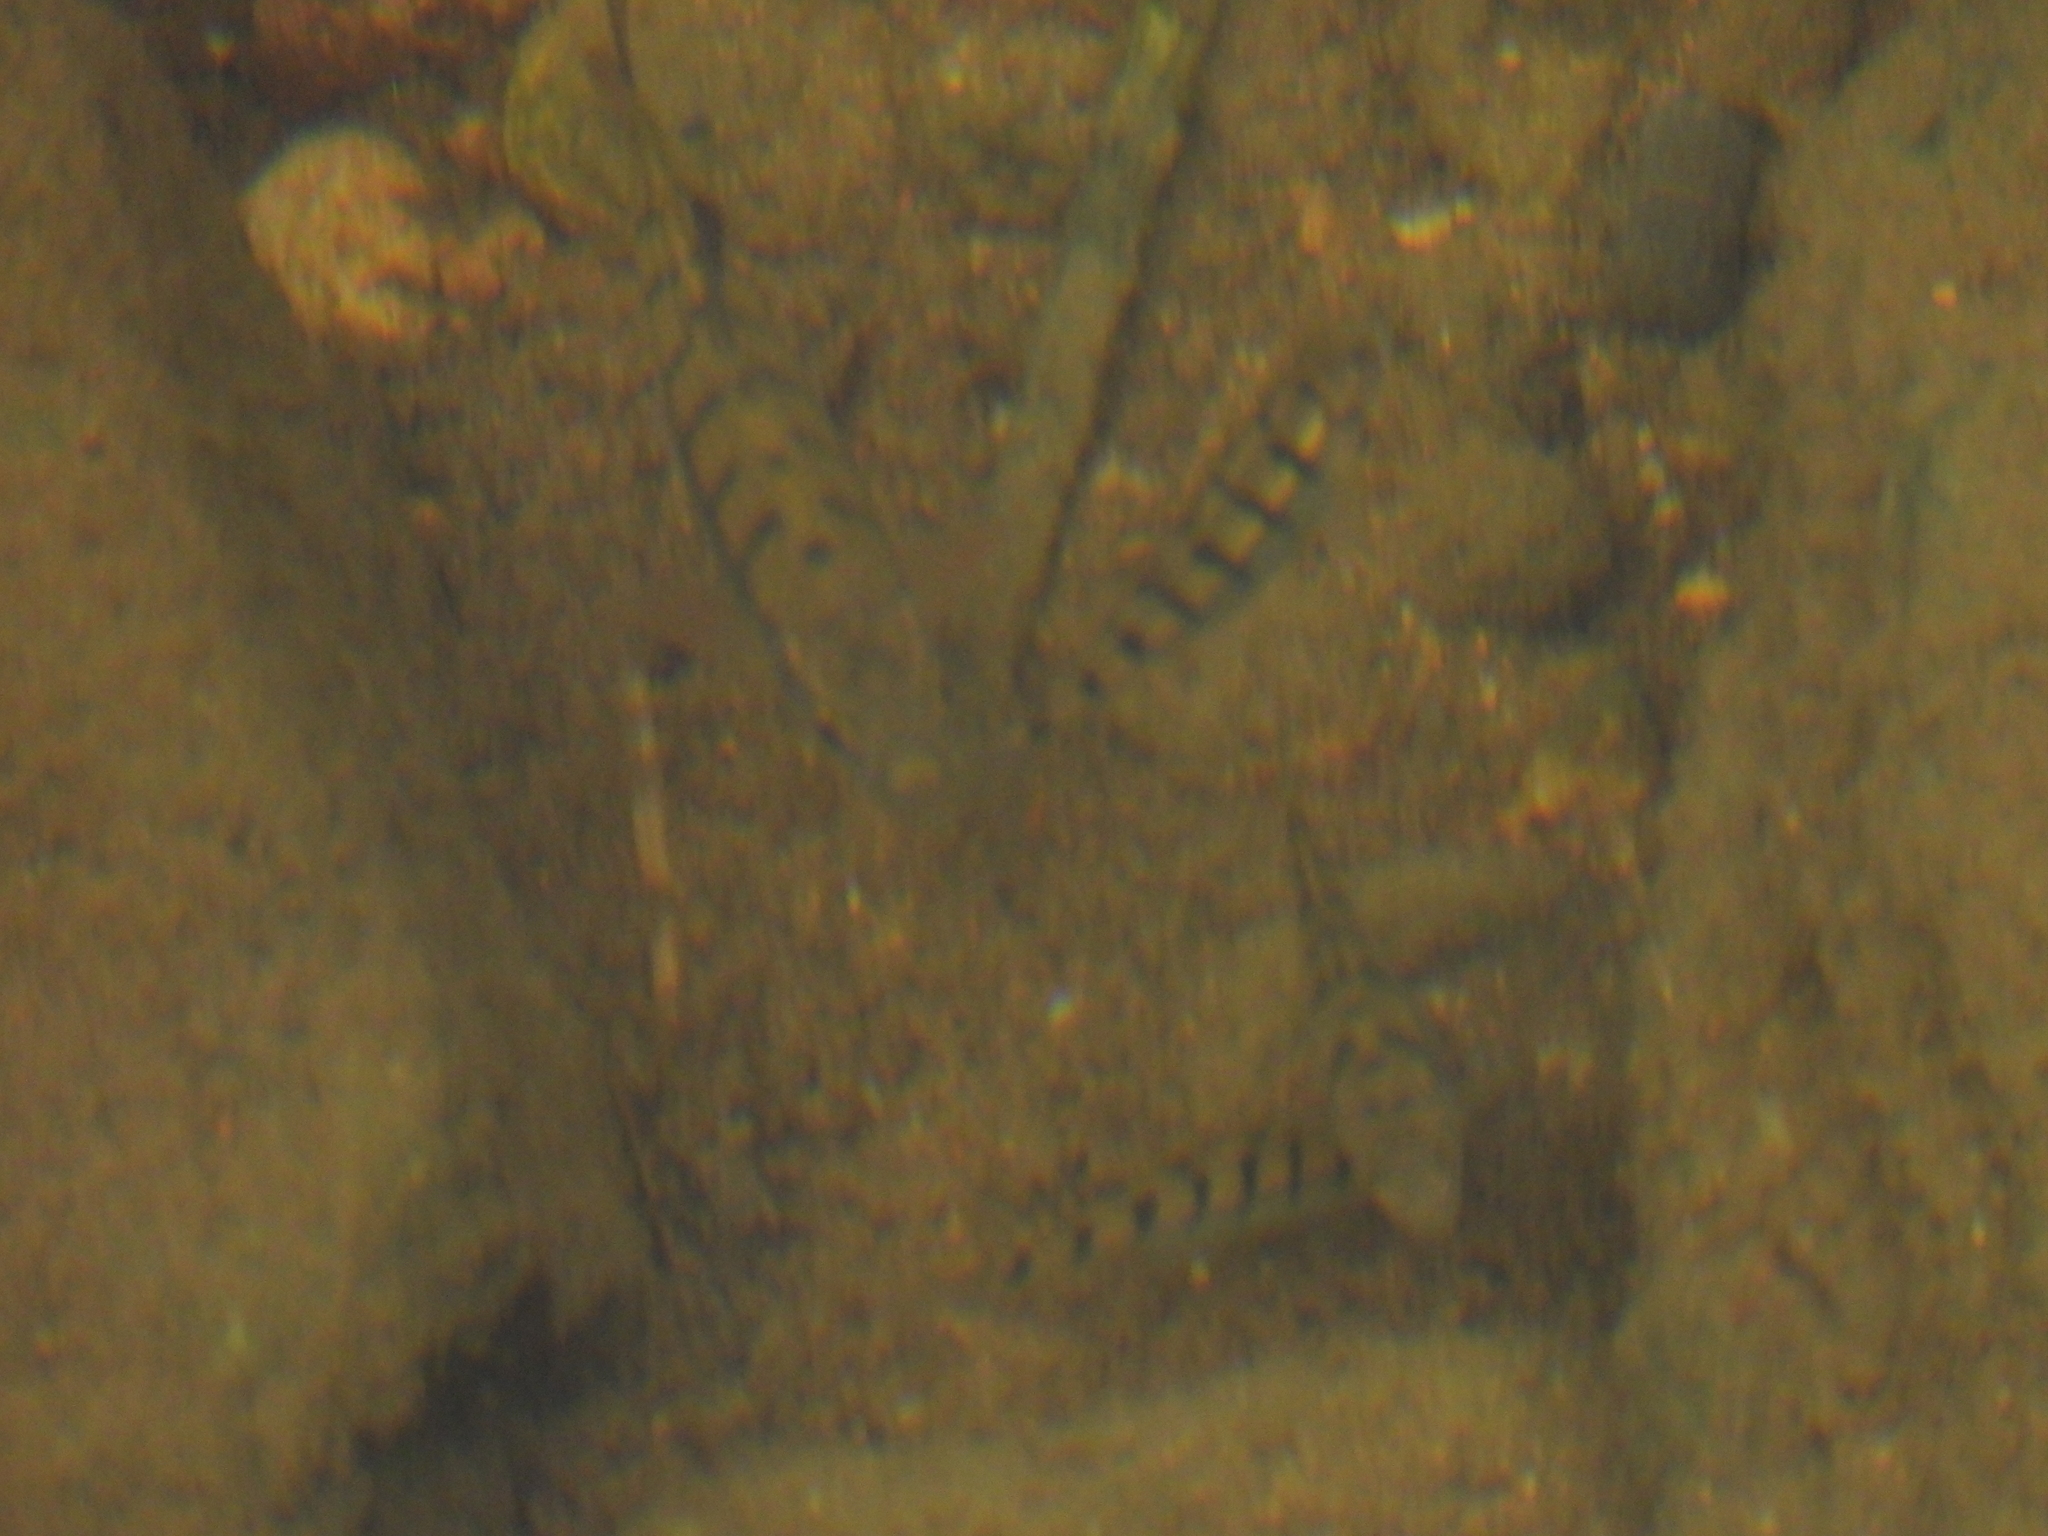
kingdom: Animalia
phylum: Chordata
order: Cypriniformes
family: Cyprinidae
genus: Acrossocheilus
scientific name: Acrossocheilus paradoxus
